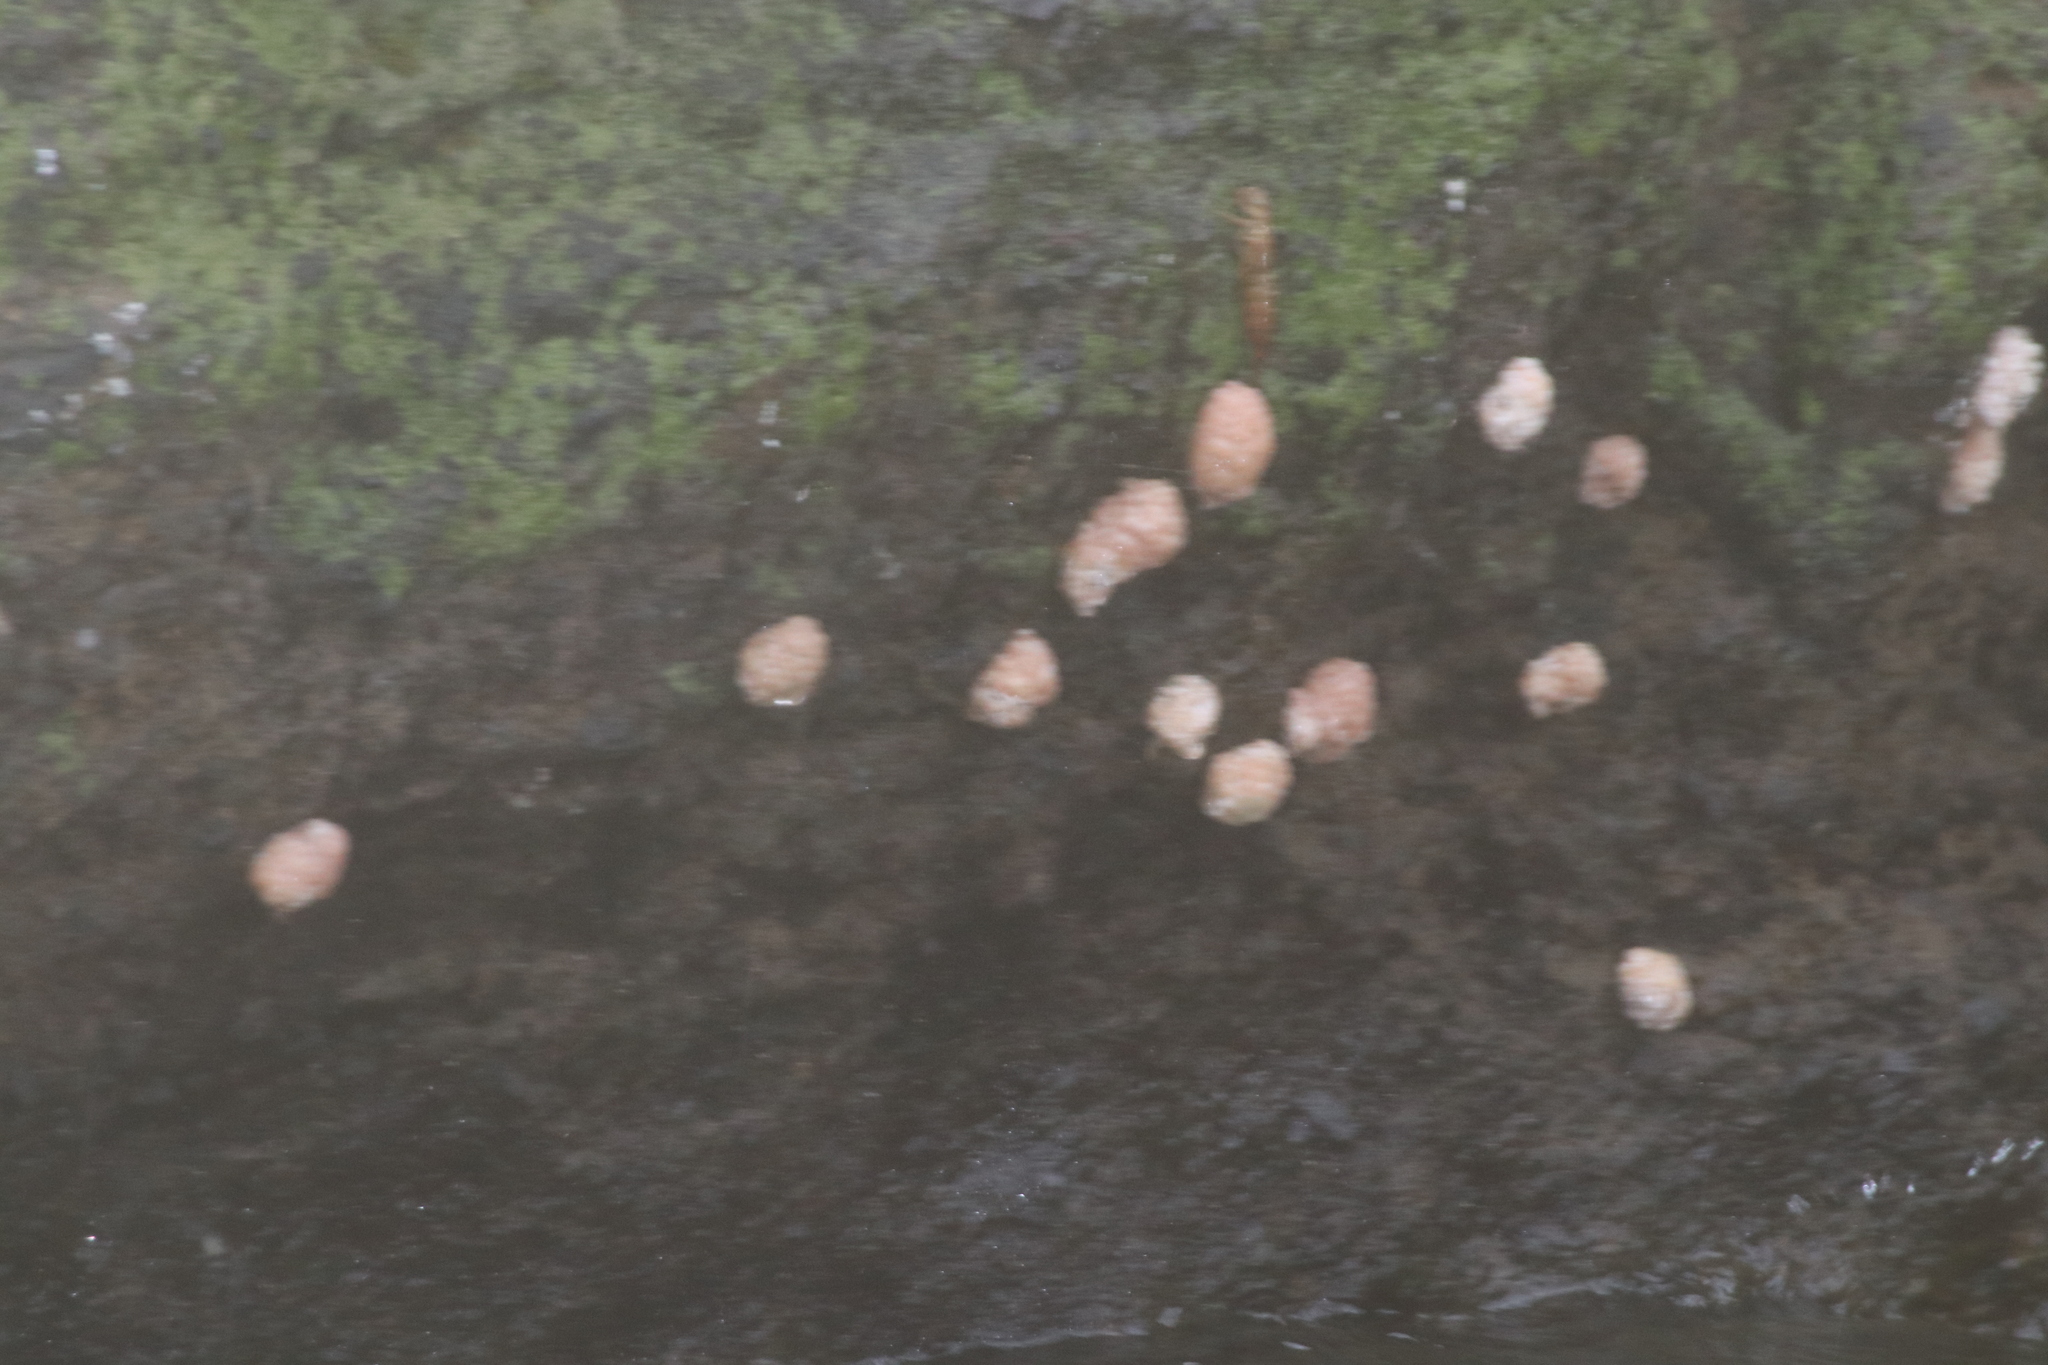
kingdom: Animalia
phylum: Mollusca
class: Gastropoda
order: Architaenioglossa
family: Ampullariidae
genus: Pomacea
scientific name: Pomacea catemacensis
